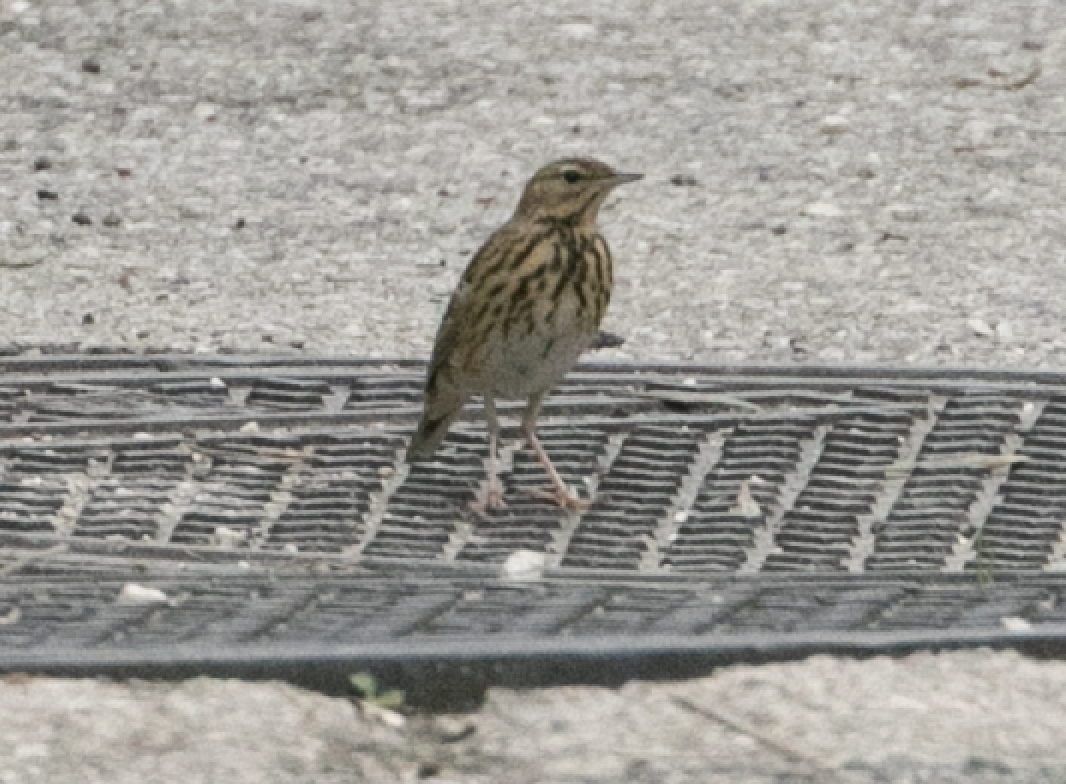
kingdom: Animalia
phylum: Chordata
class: Aves
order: Passeriformes
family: Motacillidae
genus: Anthus
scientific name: Anthus trivialis
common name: Tree pipit
